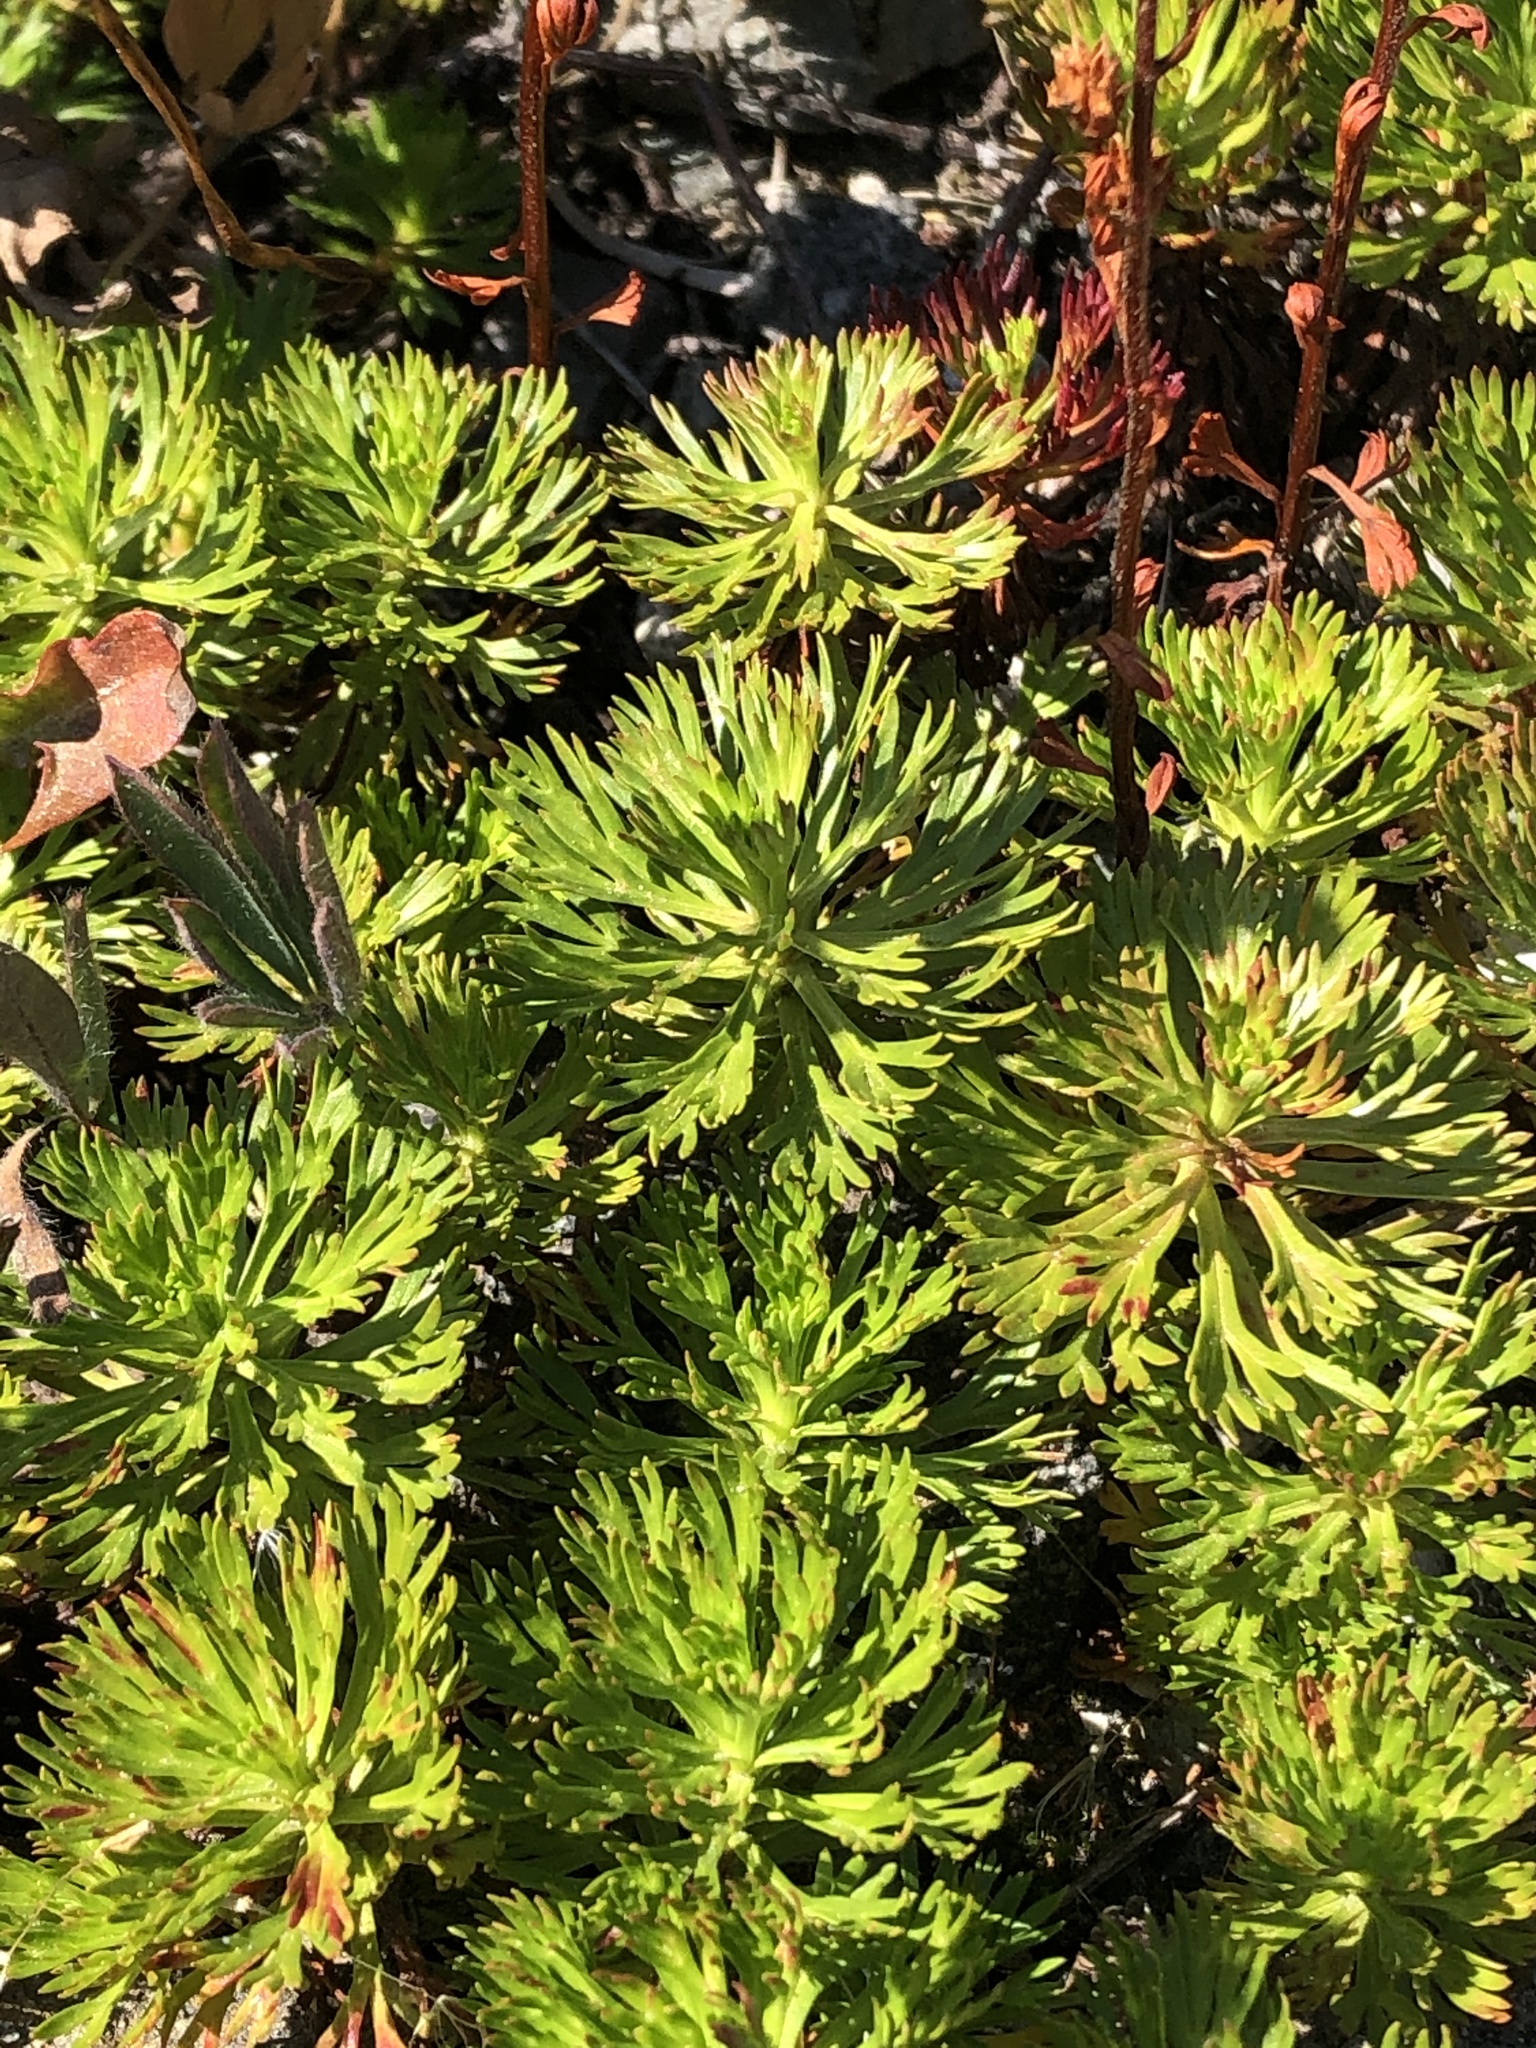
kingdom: Plantae
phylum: Tracheophyta
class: Magnoliopsida
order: Rosales
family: Rosaceae
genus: Luetkea
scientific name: Luetkea pectinata
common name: Partridgefoot
